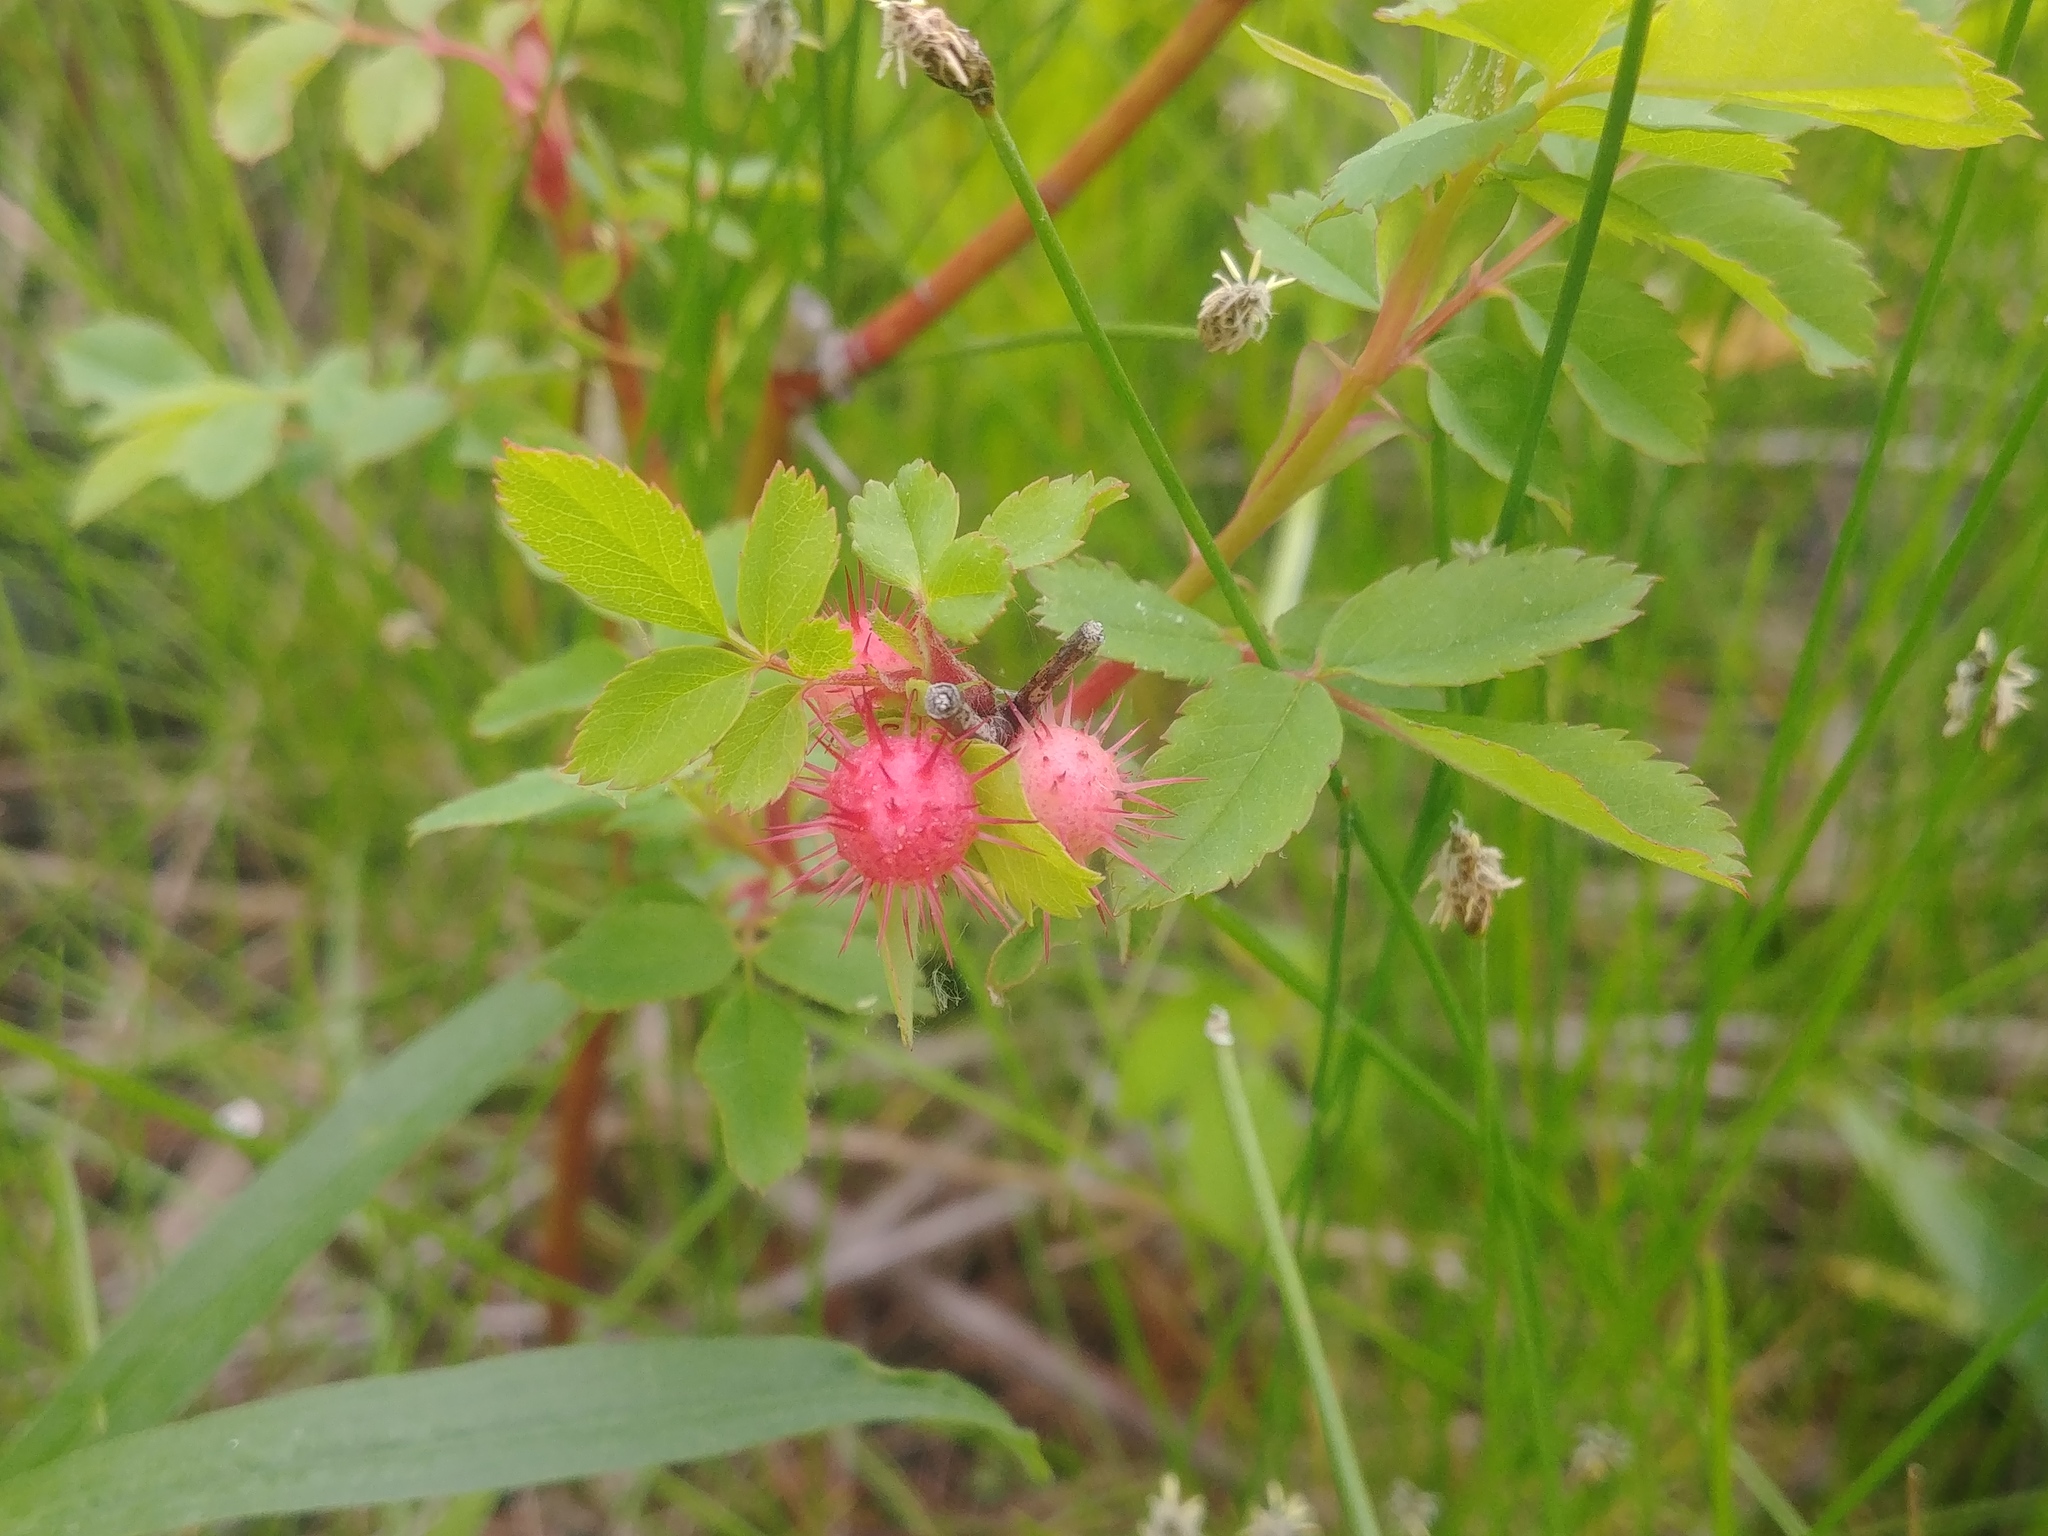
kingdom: Animalia
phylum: Arthropoda
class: Insecta
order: Hymenoptera
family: Cynipidae
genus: Diplolepis
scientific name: Diplolepis polita
